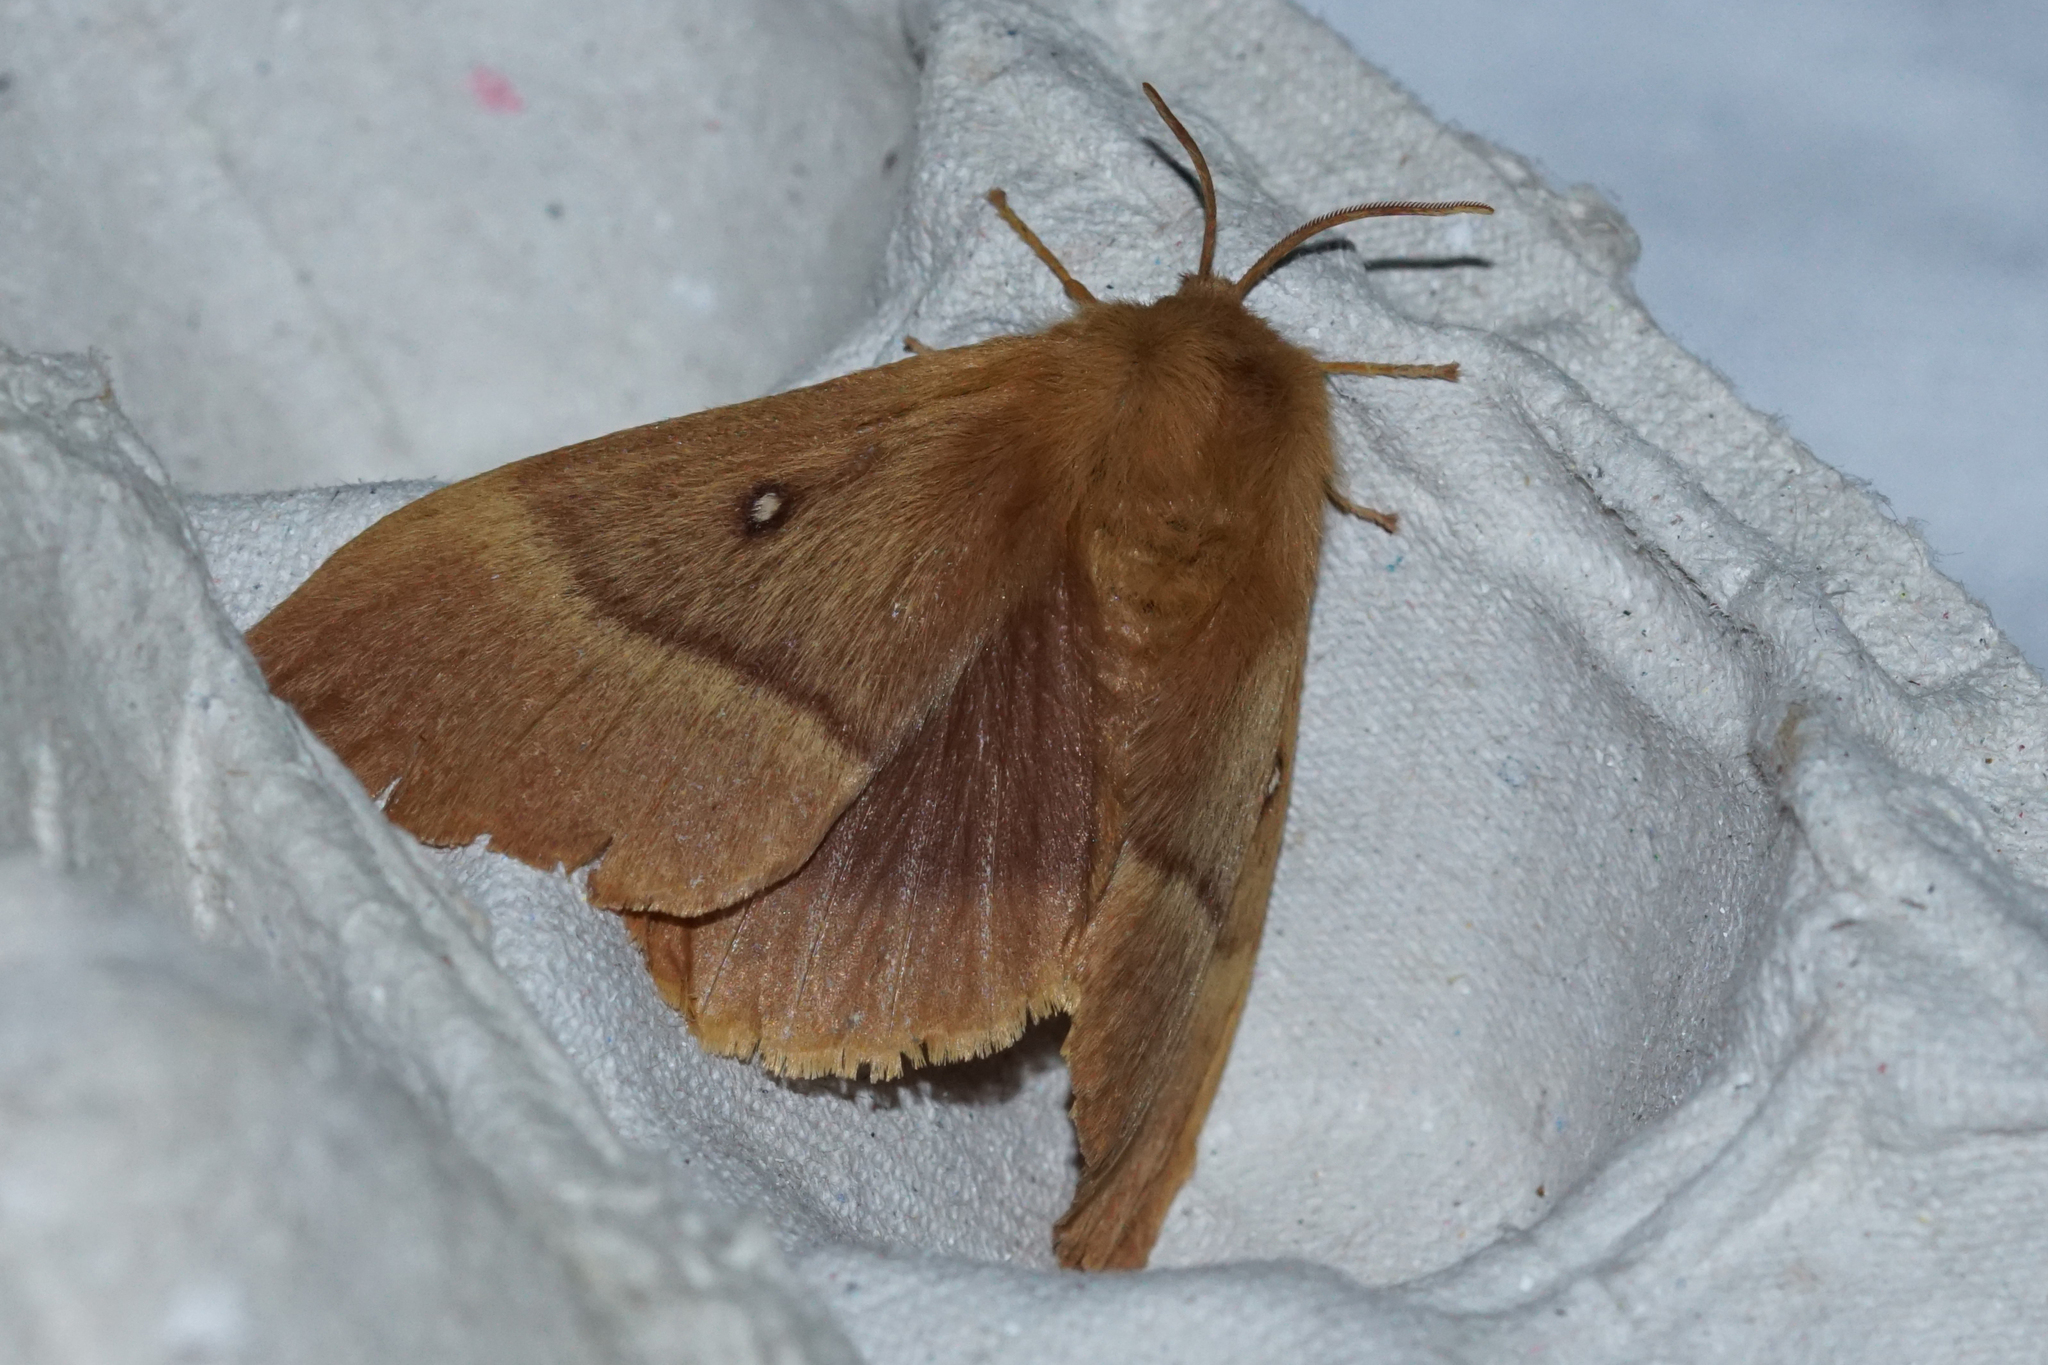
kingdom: Animalia
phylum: Arthropoda
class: Insecta
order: Lepidoptera
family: Lasiocampidae
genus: Lasiocampa
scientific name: Lasiocampa quercus
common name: Oak eggar
